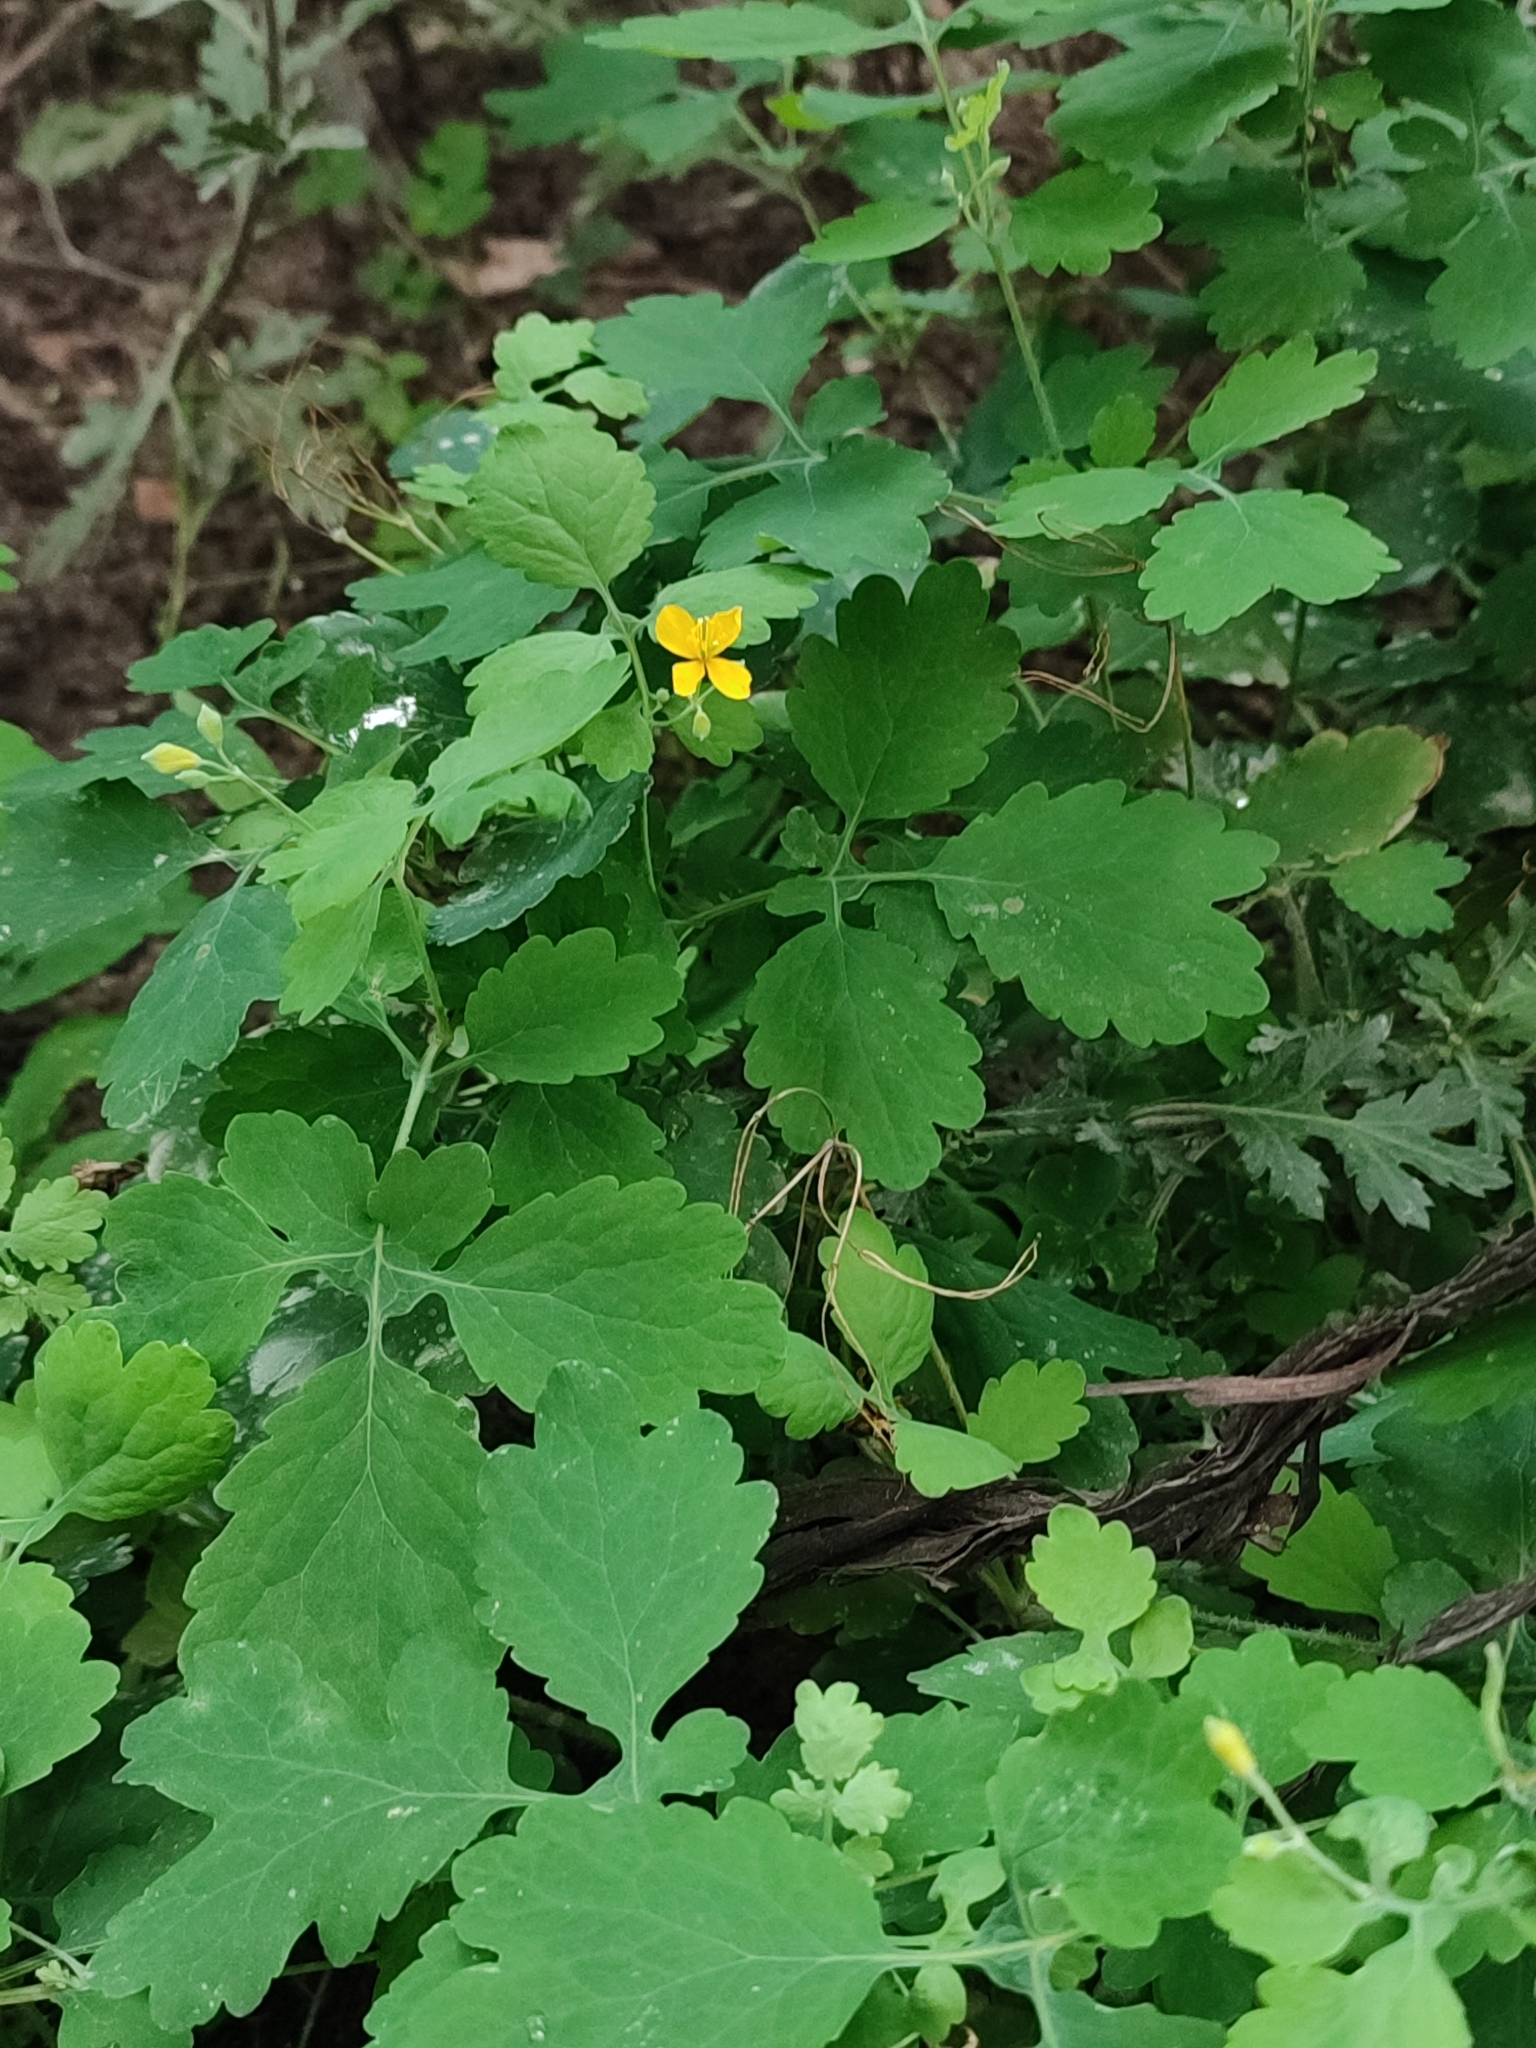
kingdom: Plantae
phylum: Tracheophyta
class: Magnoliopsida
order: Ranunculales
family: Papaveraceae
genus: Chelidonium
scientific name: Chelidonium majus
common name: Greater celandine
